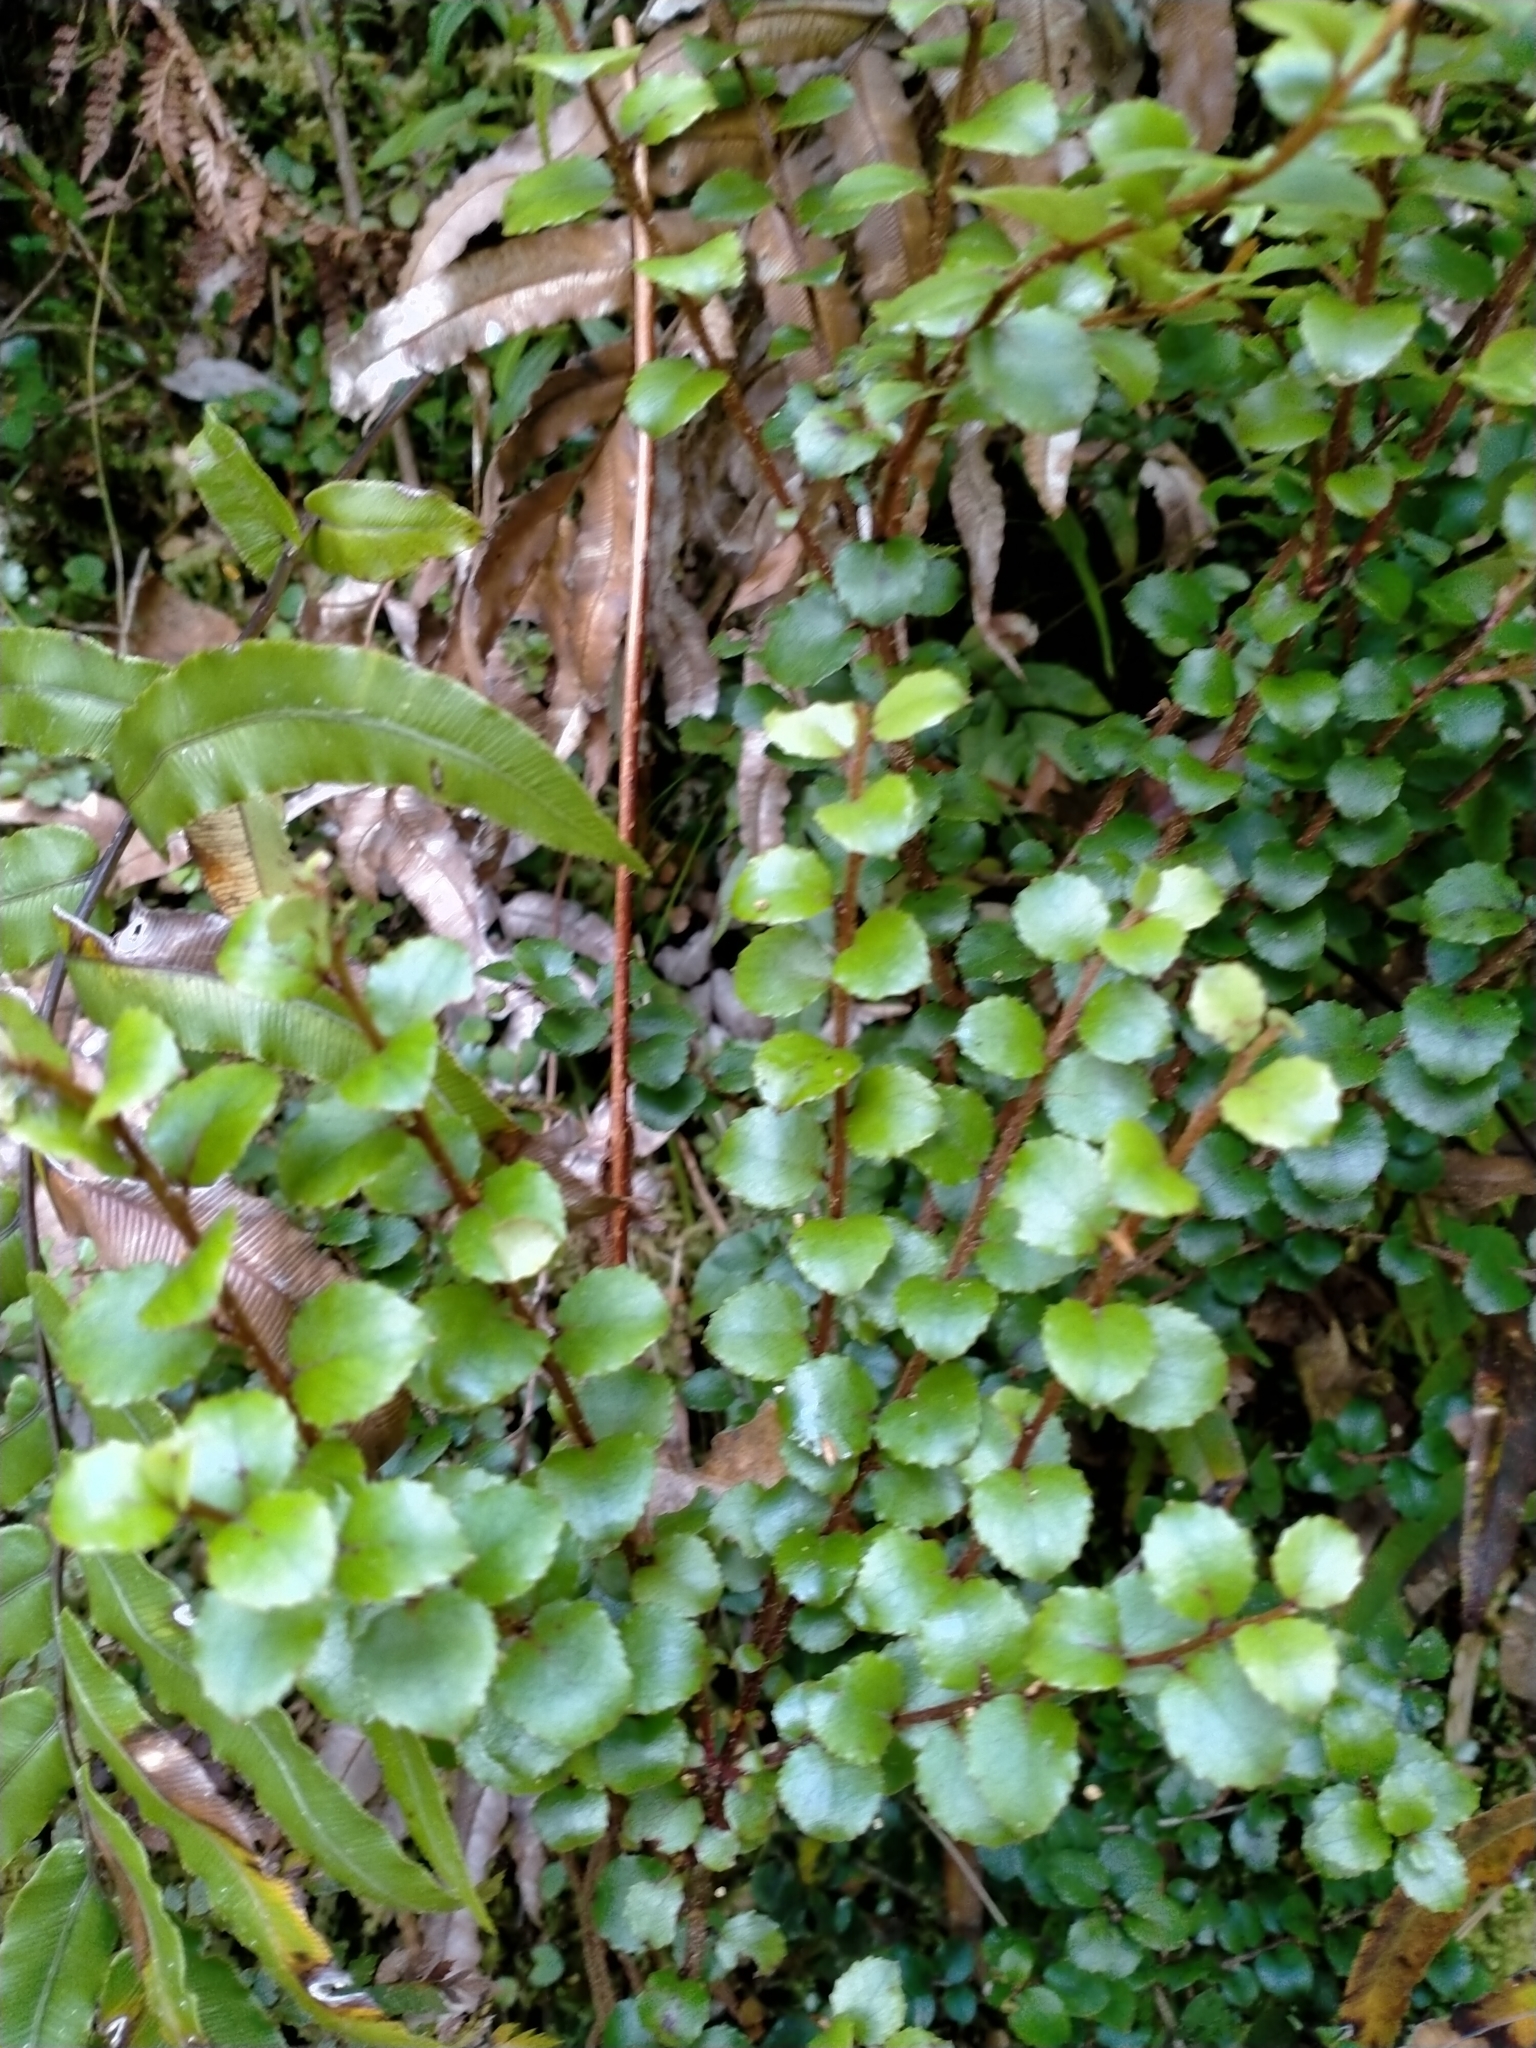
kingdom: Plantae
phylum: Tracheophyta
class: Magnoliopsida
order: Ericales
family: Ericaceae
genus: Gaultheria
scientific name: Gaultheria antipoda
